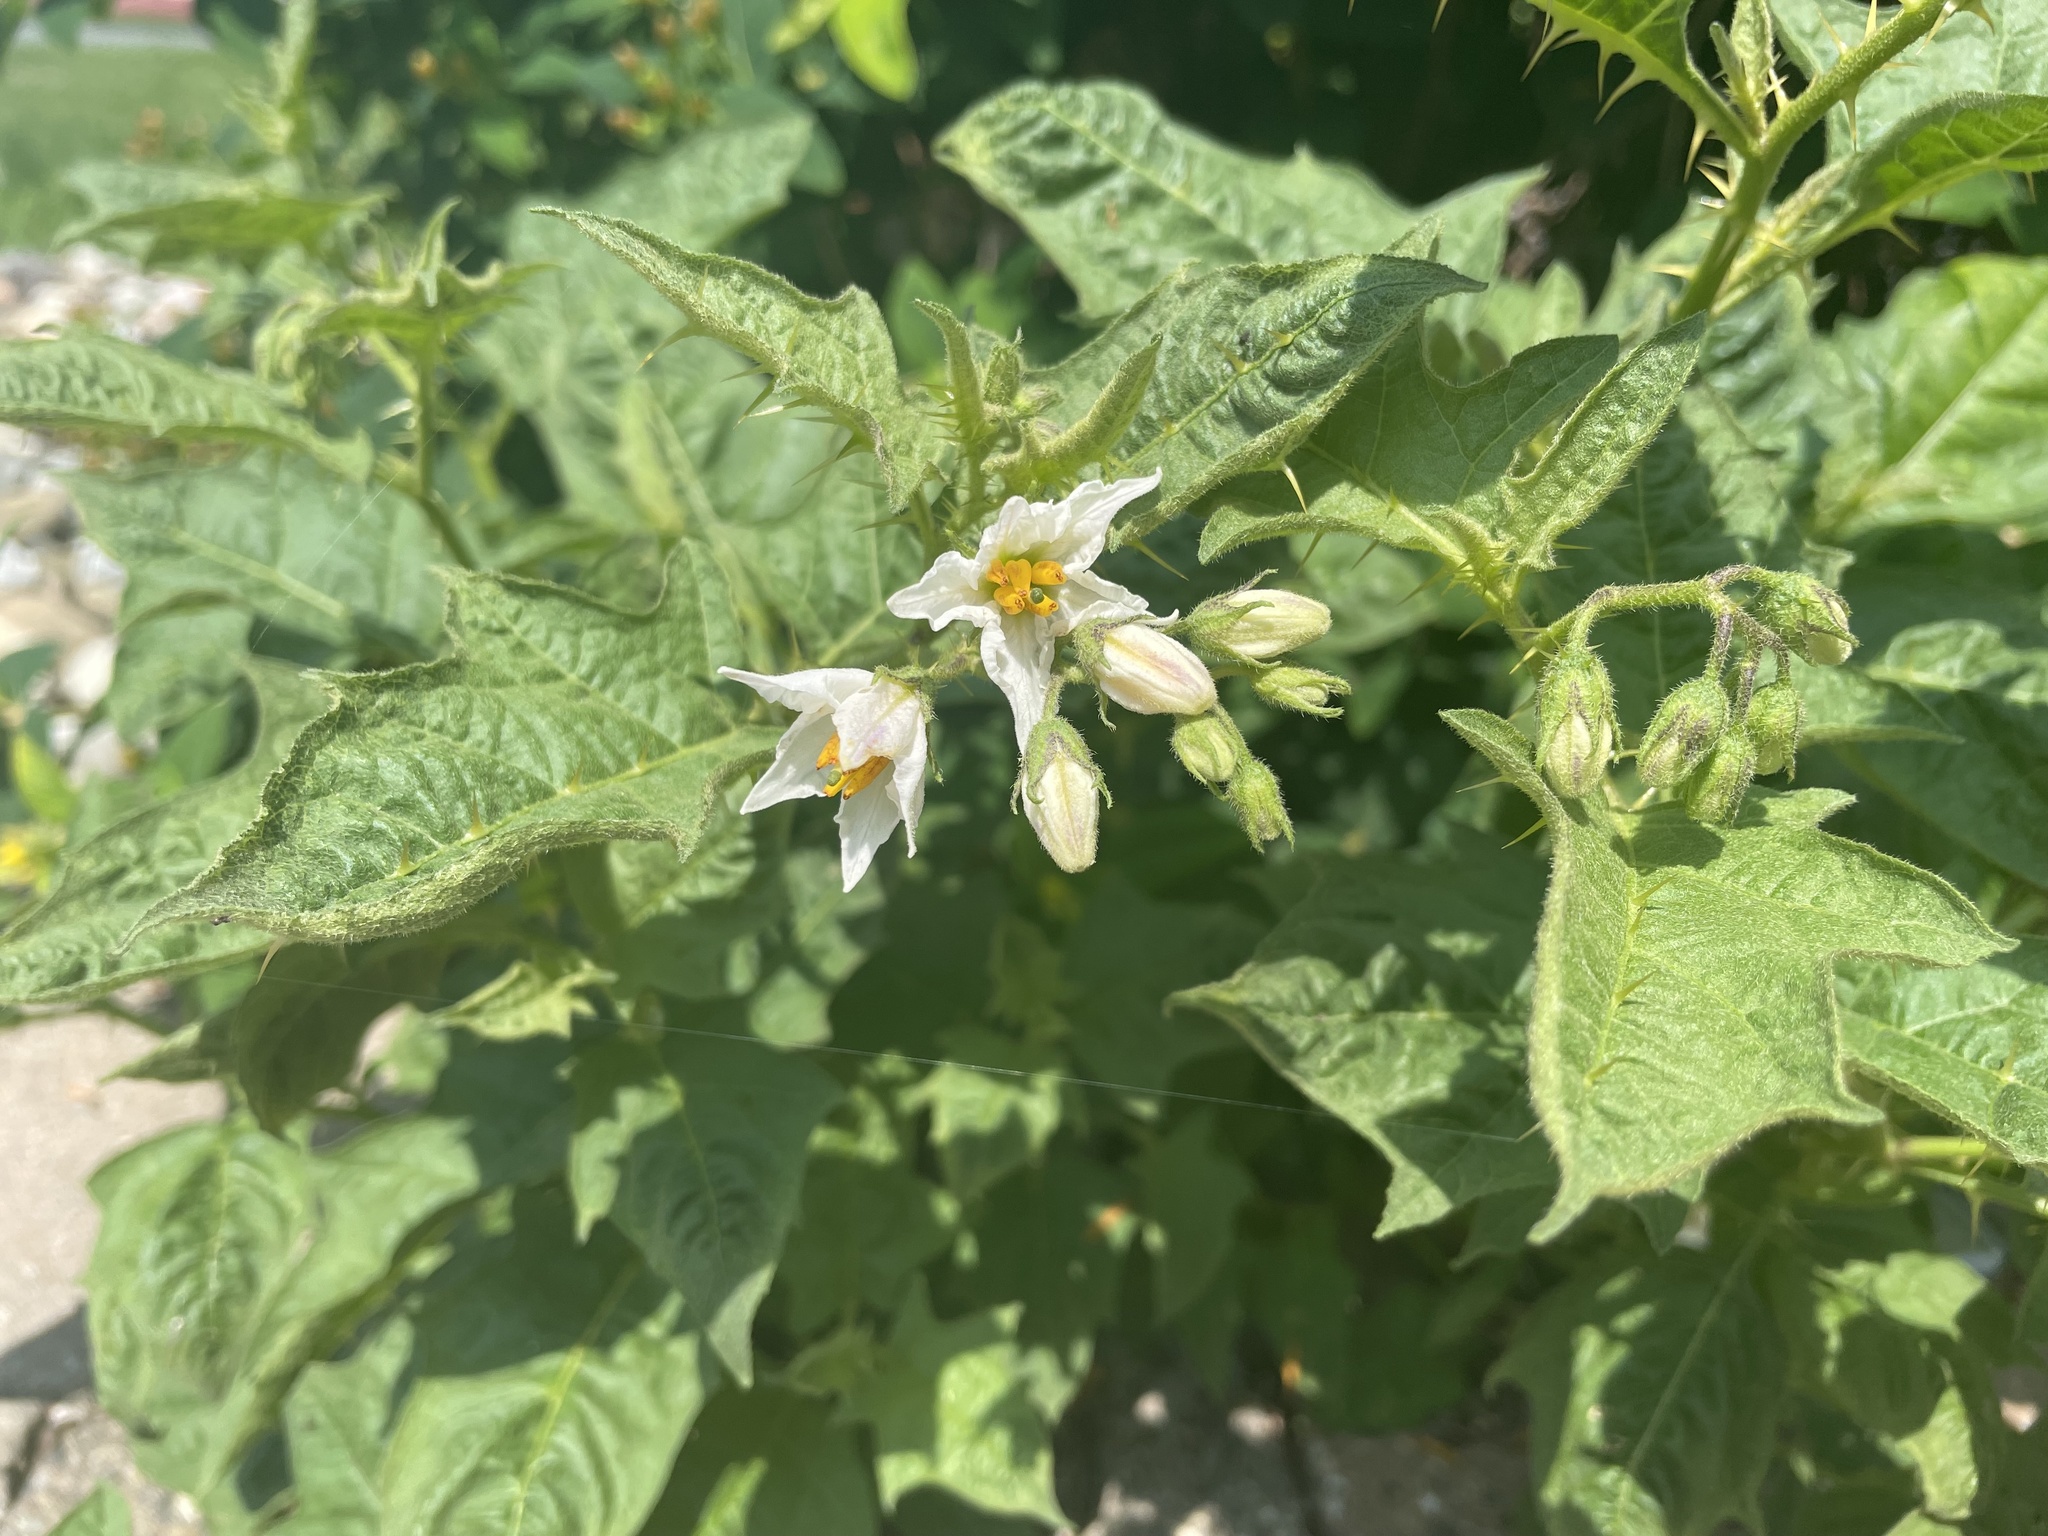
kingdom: Plantae
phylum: Tracheophyta
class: Magnoliopsida
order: Solanales
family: Solanaceae
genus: Solanum
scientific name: Solanum carolinense
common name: Horse-nettle
